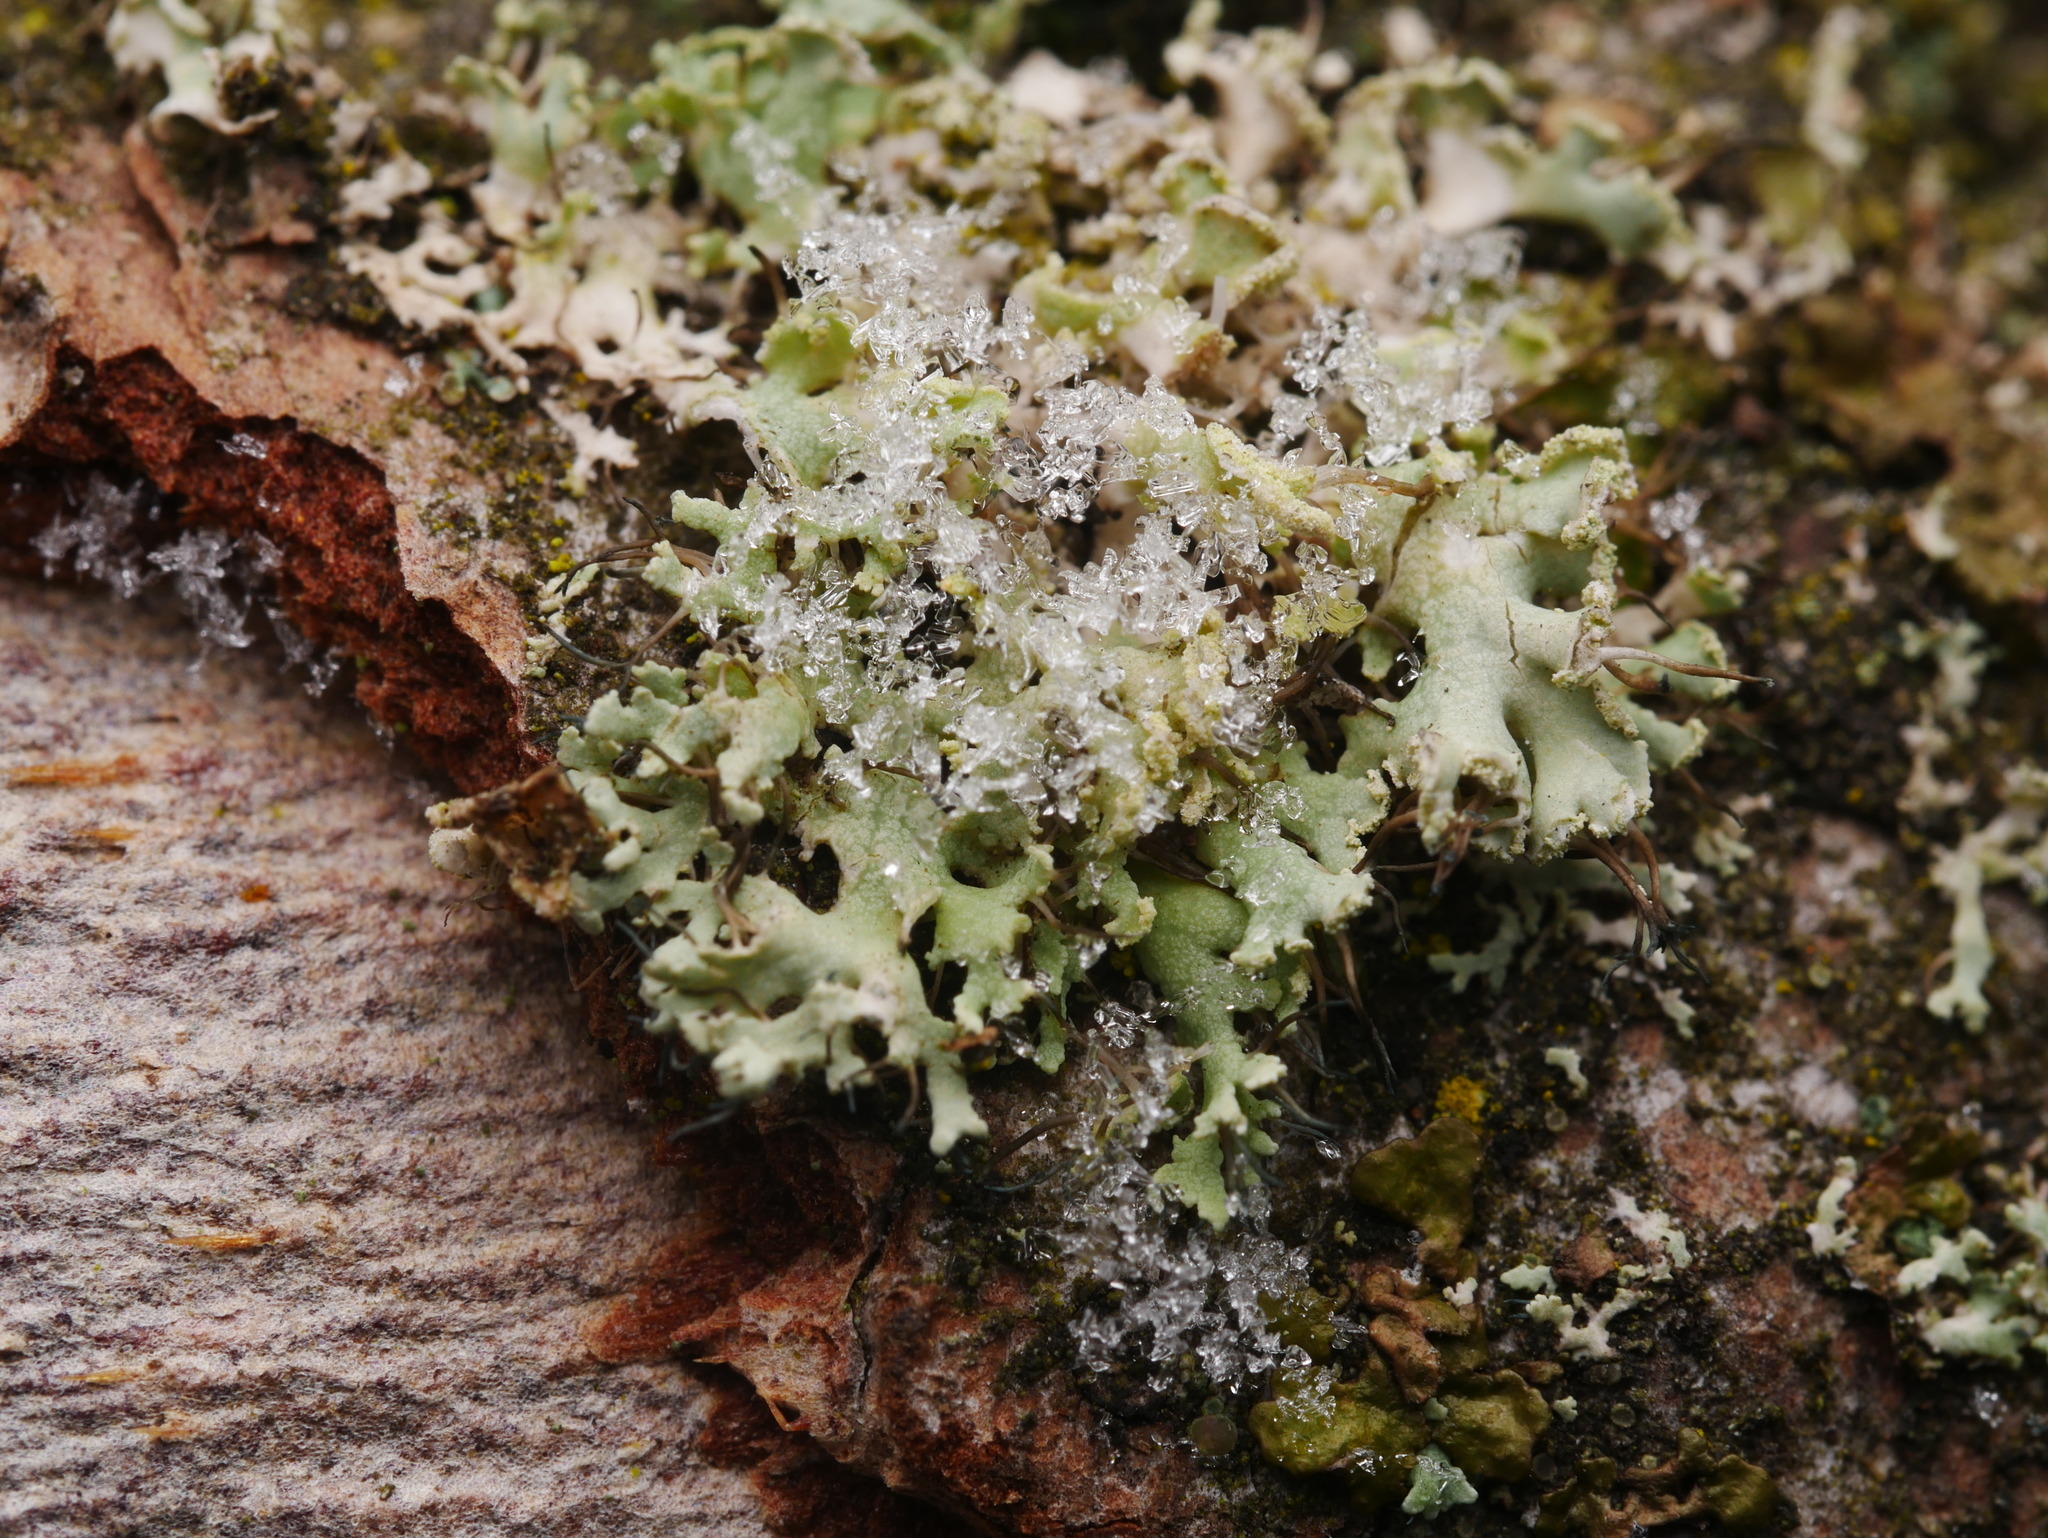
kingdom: Fungi
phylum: Ascomycota
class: Lecanoromycetes
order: Caliciales
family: Physciaceae
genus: Physcia
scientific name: Physcia tenella
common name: Fringed rosette lichen
